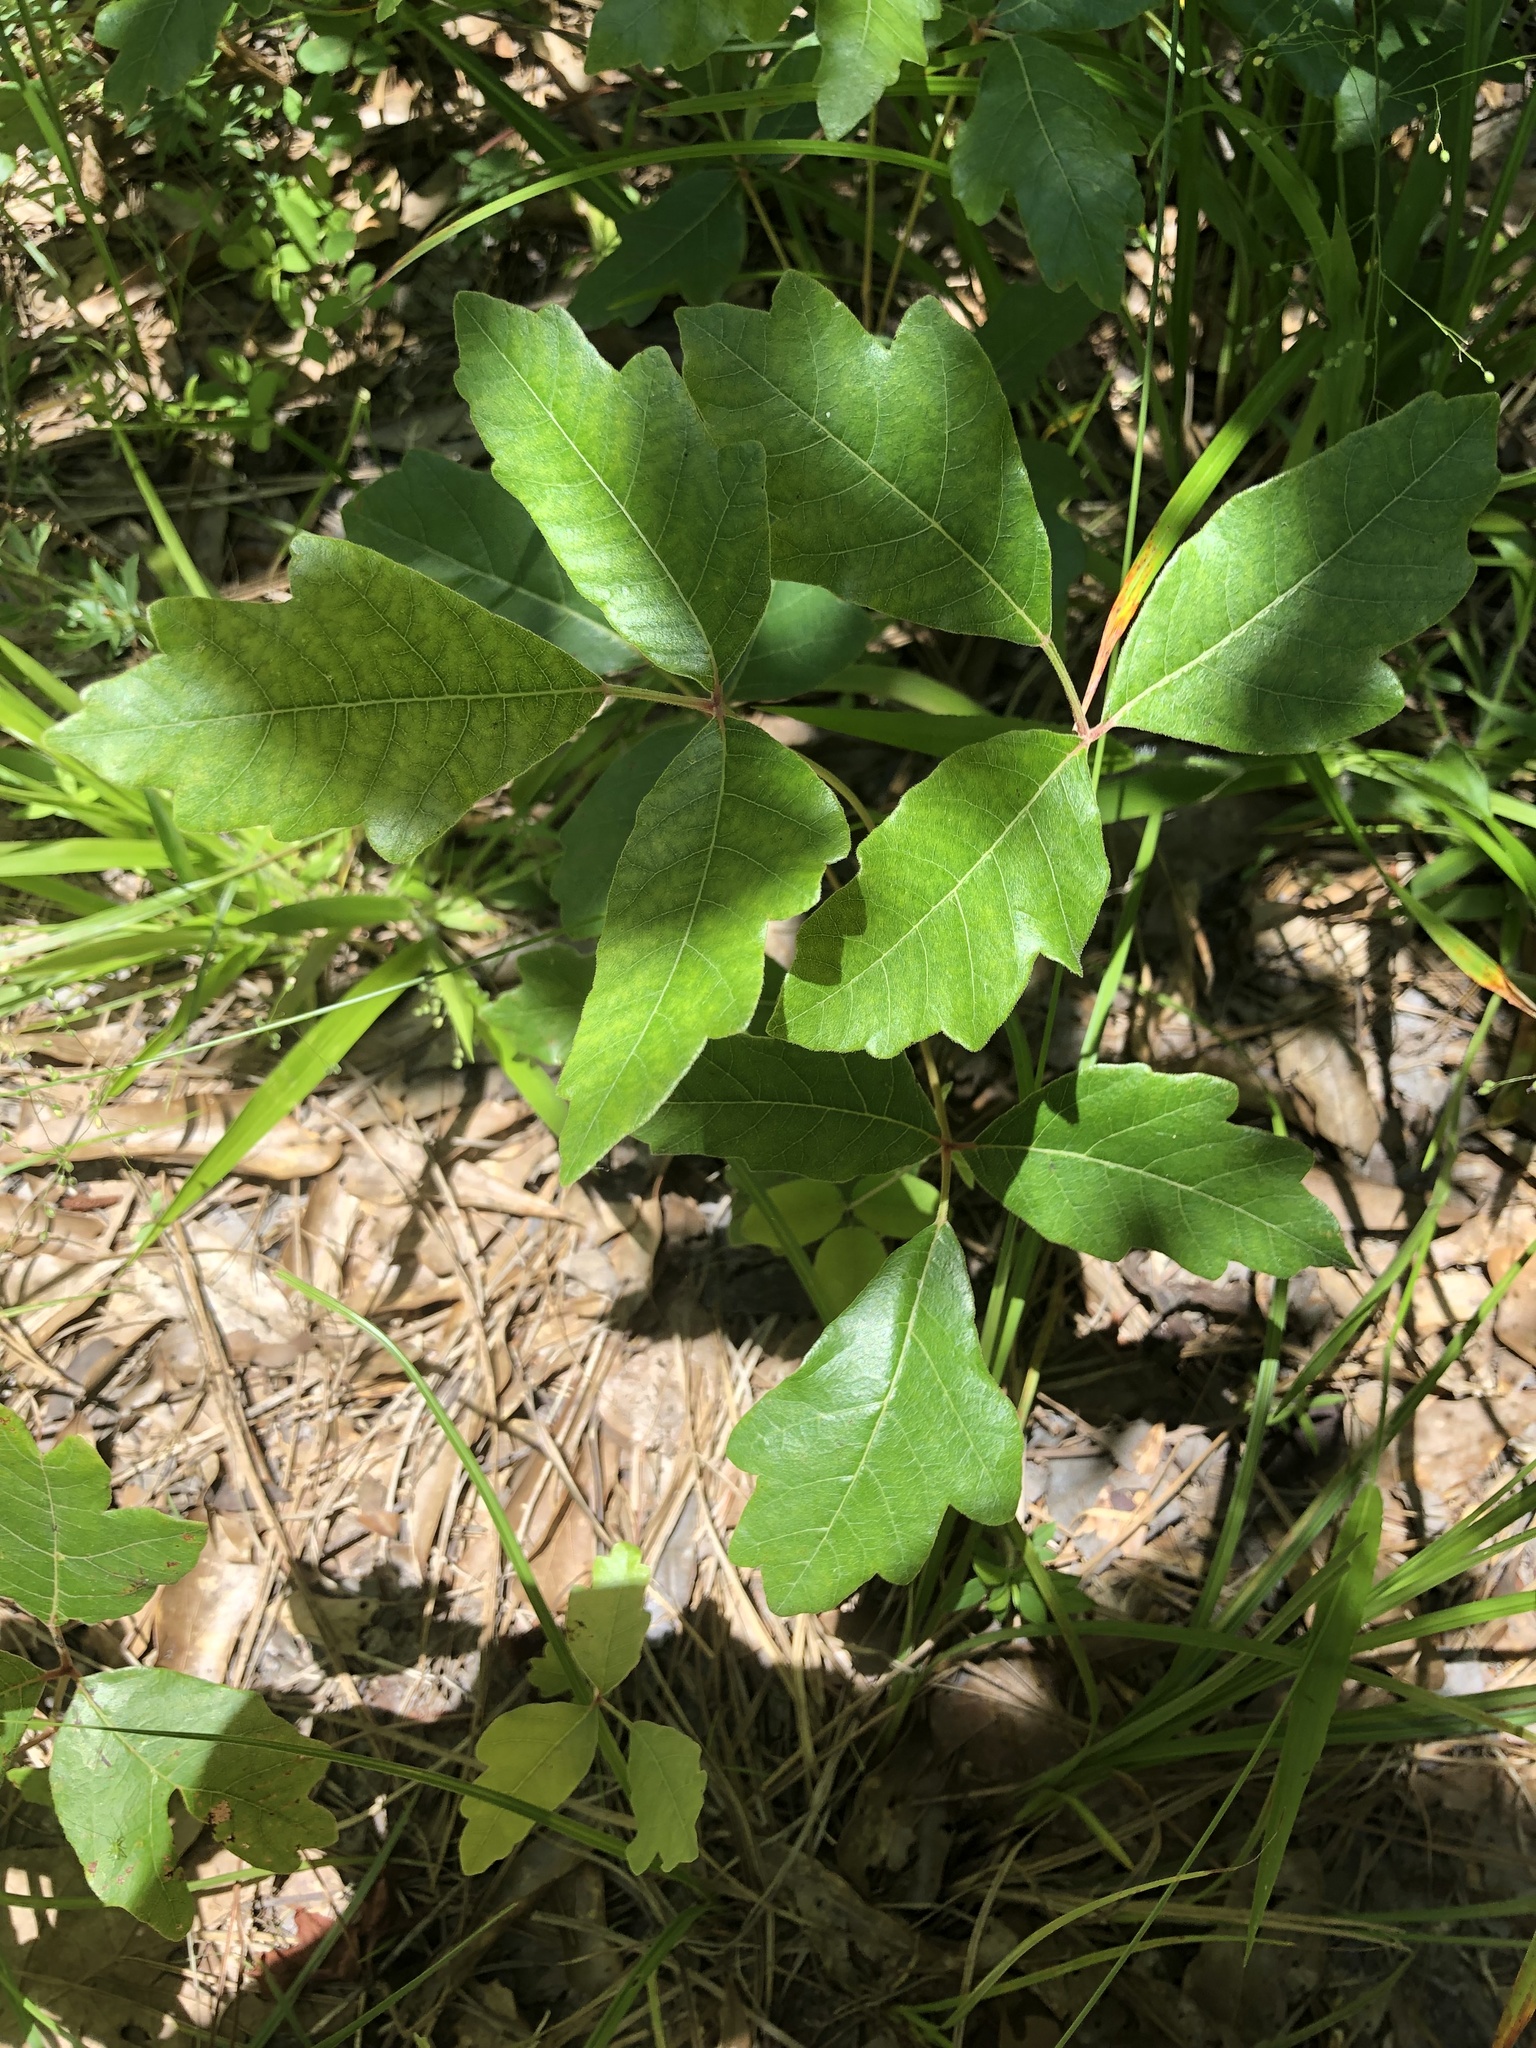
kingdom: Plantae
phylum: Tracheophyta
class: Magnoliopsida
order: Sapindales
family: Anacardiaceae
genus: Toxicodendron
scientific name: Toxicodendron pubescens
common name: Eastern poison-oak
